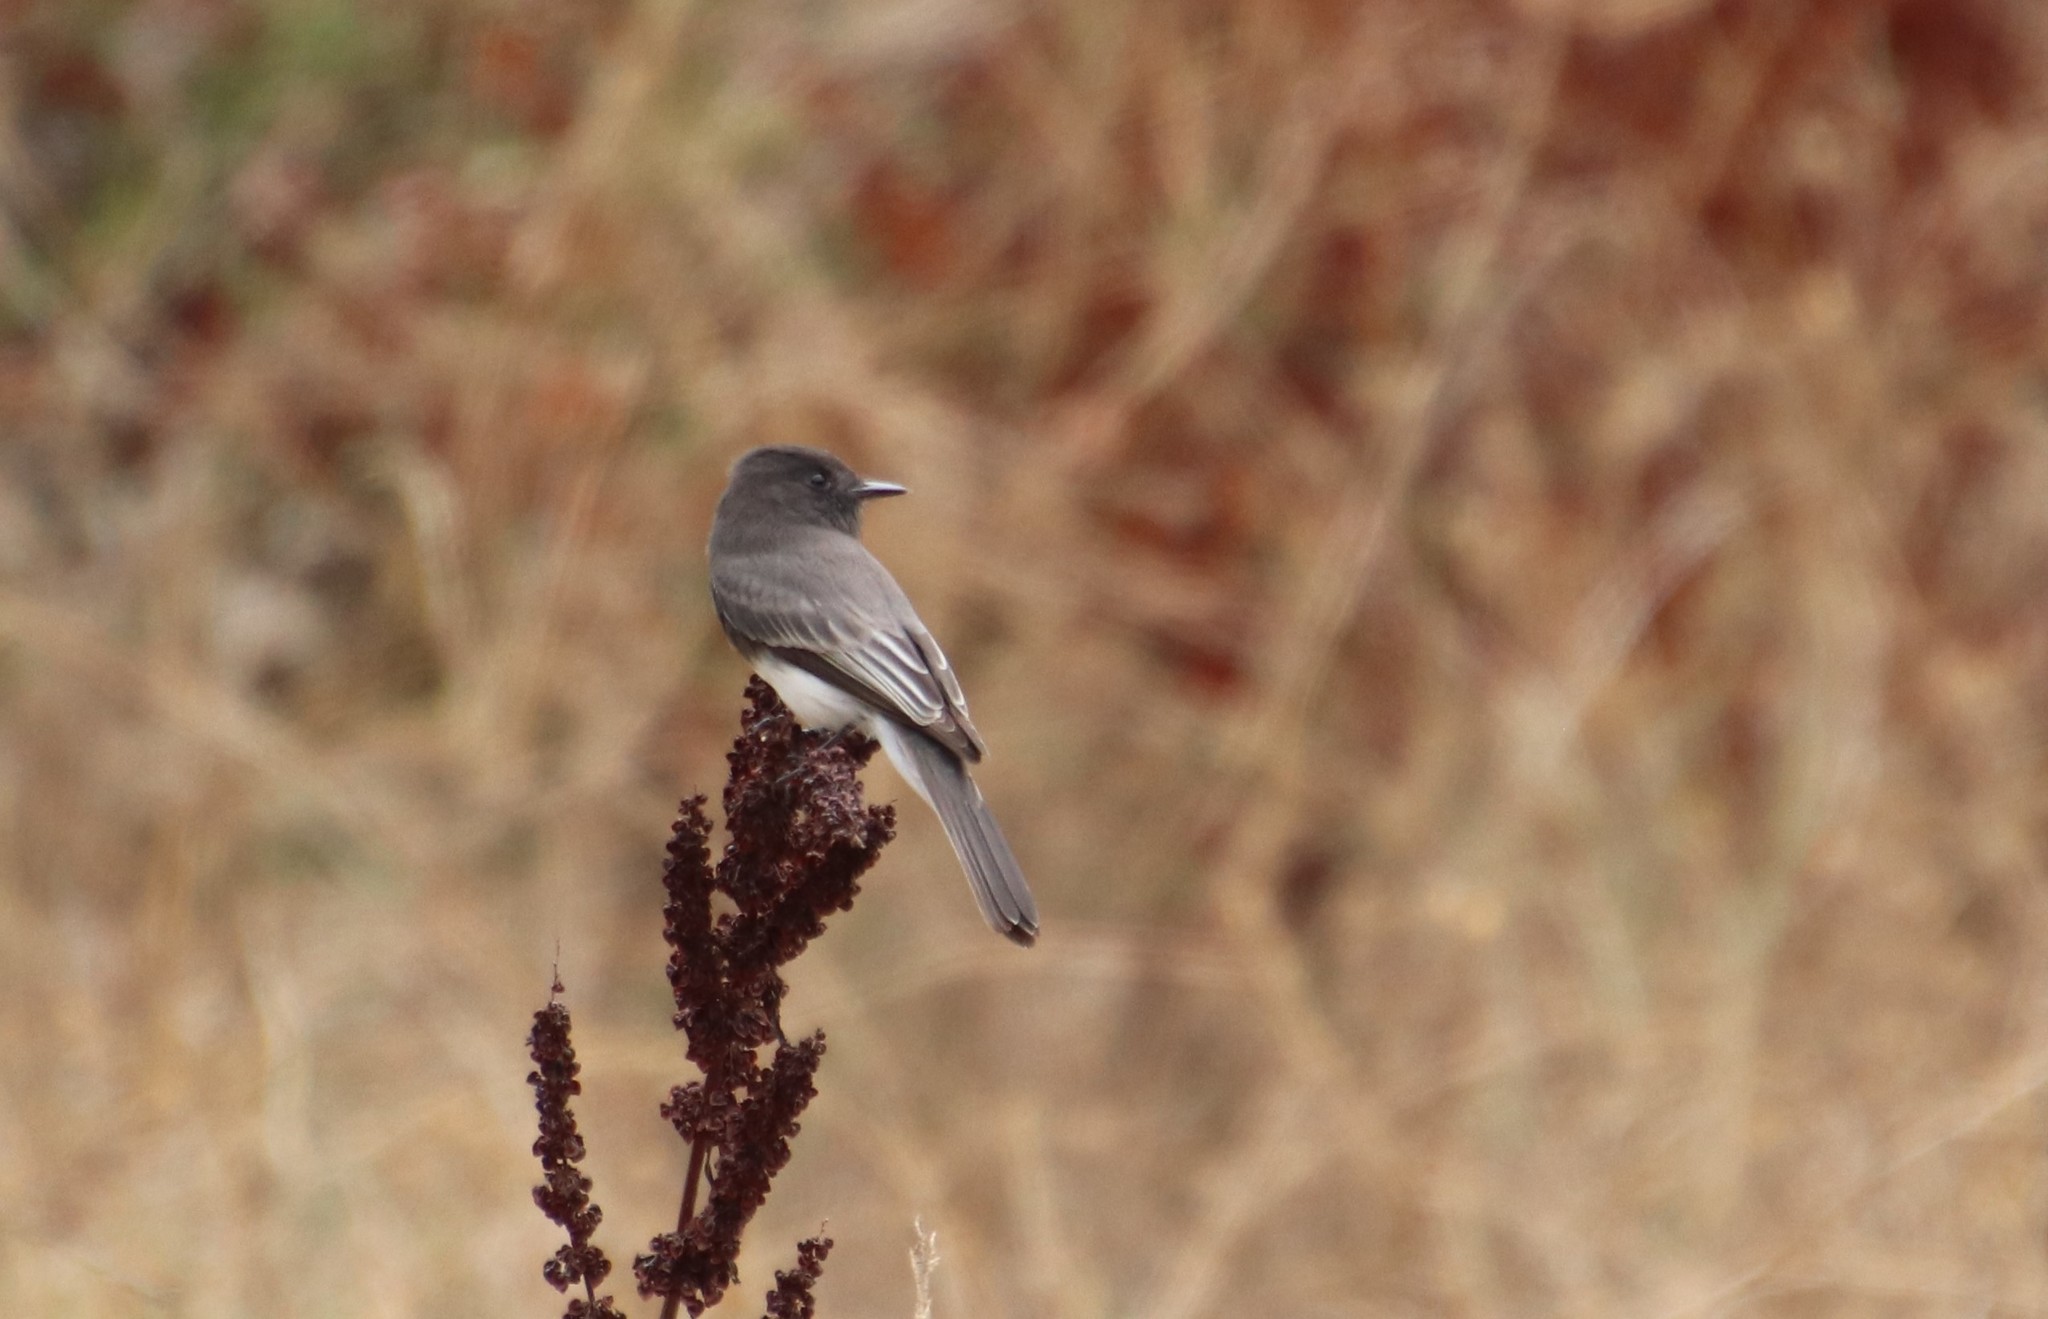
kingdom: Animalia
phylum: Chordata
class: Aves
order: Passeriformes
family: Tyrannidae
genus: Sayornis
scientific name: Sayornis nigricans
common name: Black phoebe
